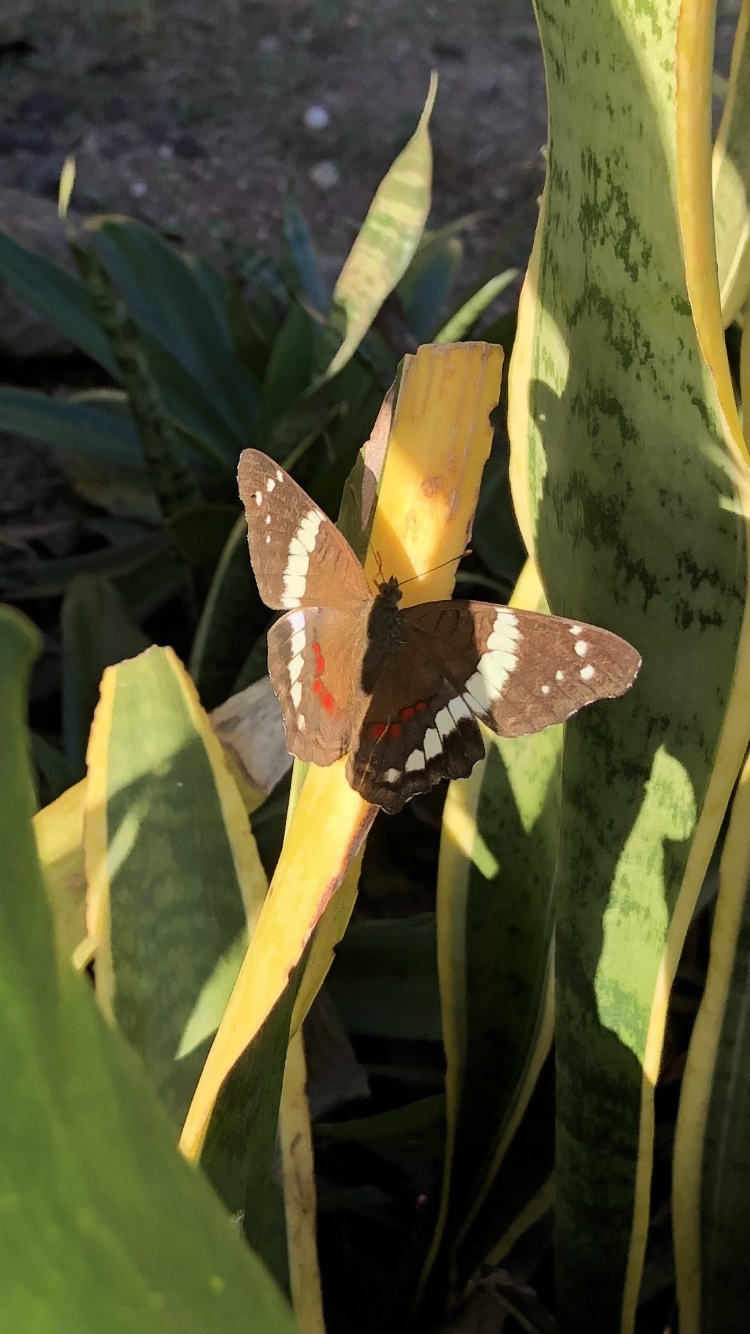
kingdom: Animalia
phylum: Arthropoda
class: Insecta
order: Lepidoptera
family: Nymphalidae
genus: Anartia
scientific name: Anartia fatima
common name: Banded peacock
